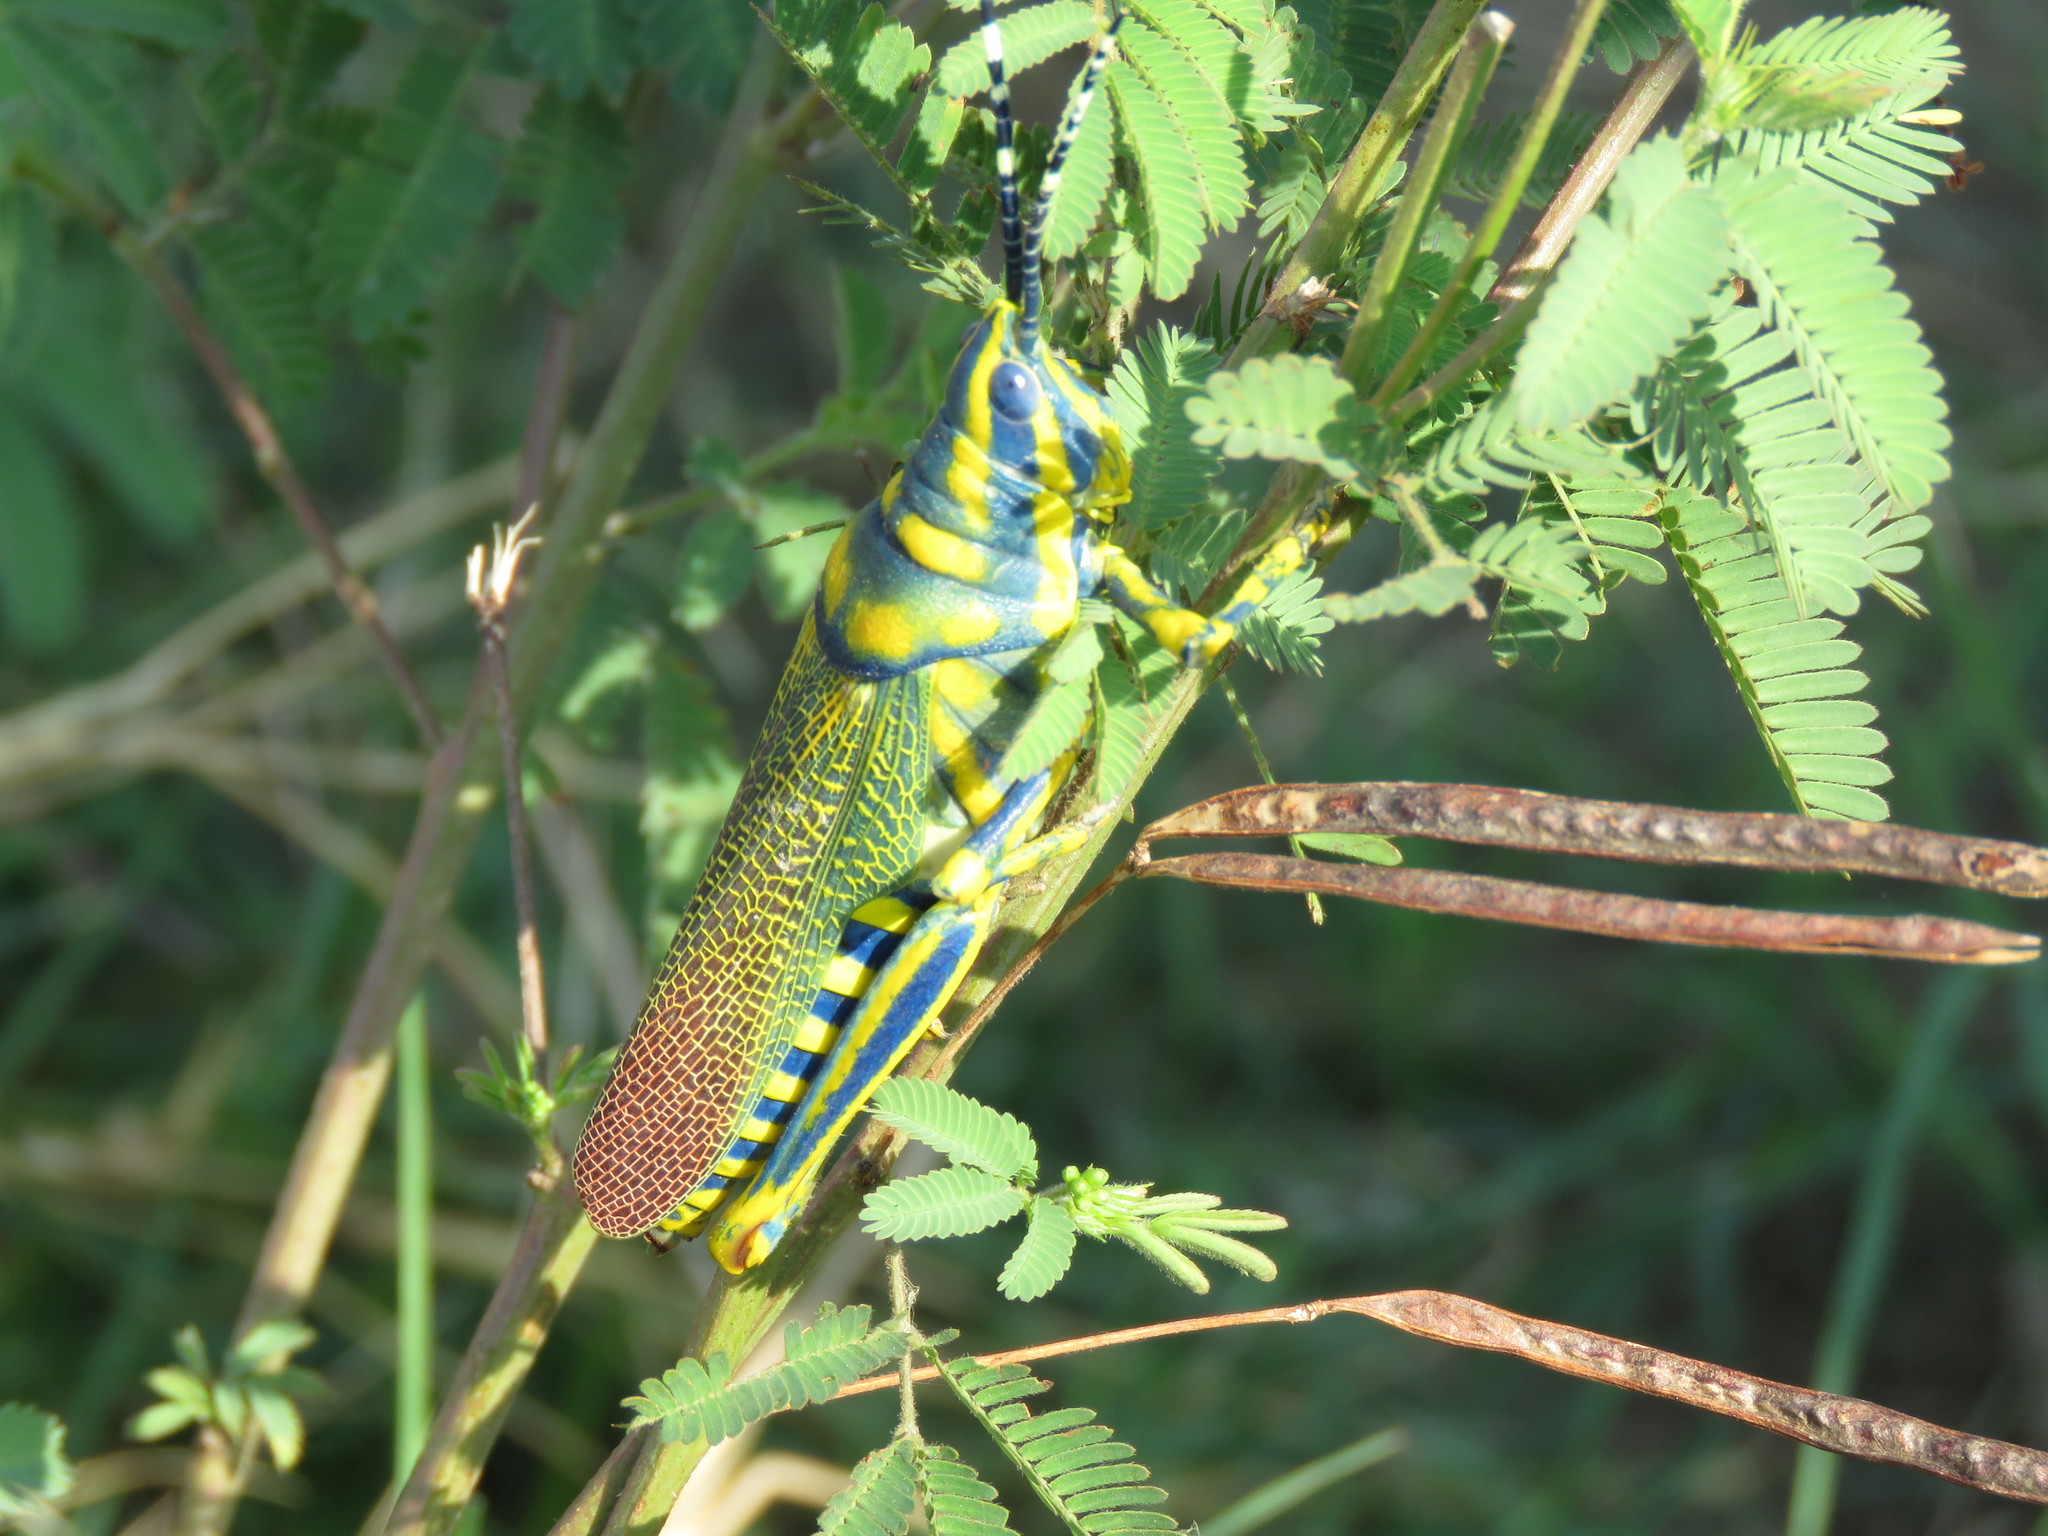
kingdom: Animalia
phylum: Arthropoda
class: Insecta
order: Orthoptera
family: Pyrgomorphidae
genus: Poekilocerus
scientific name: Poekilocerus pictus
